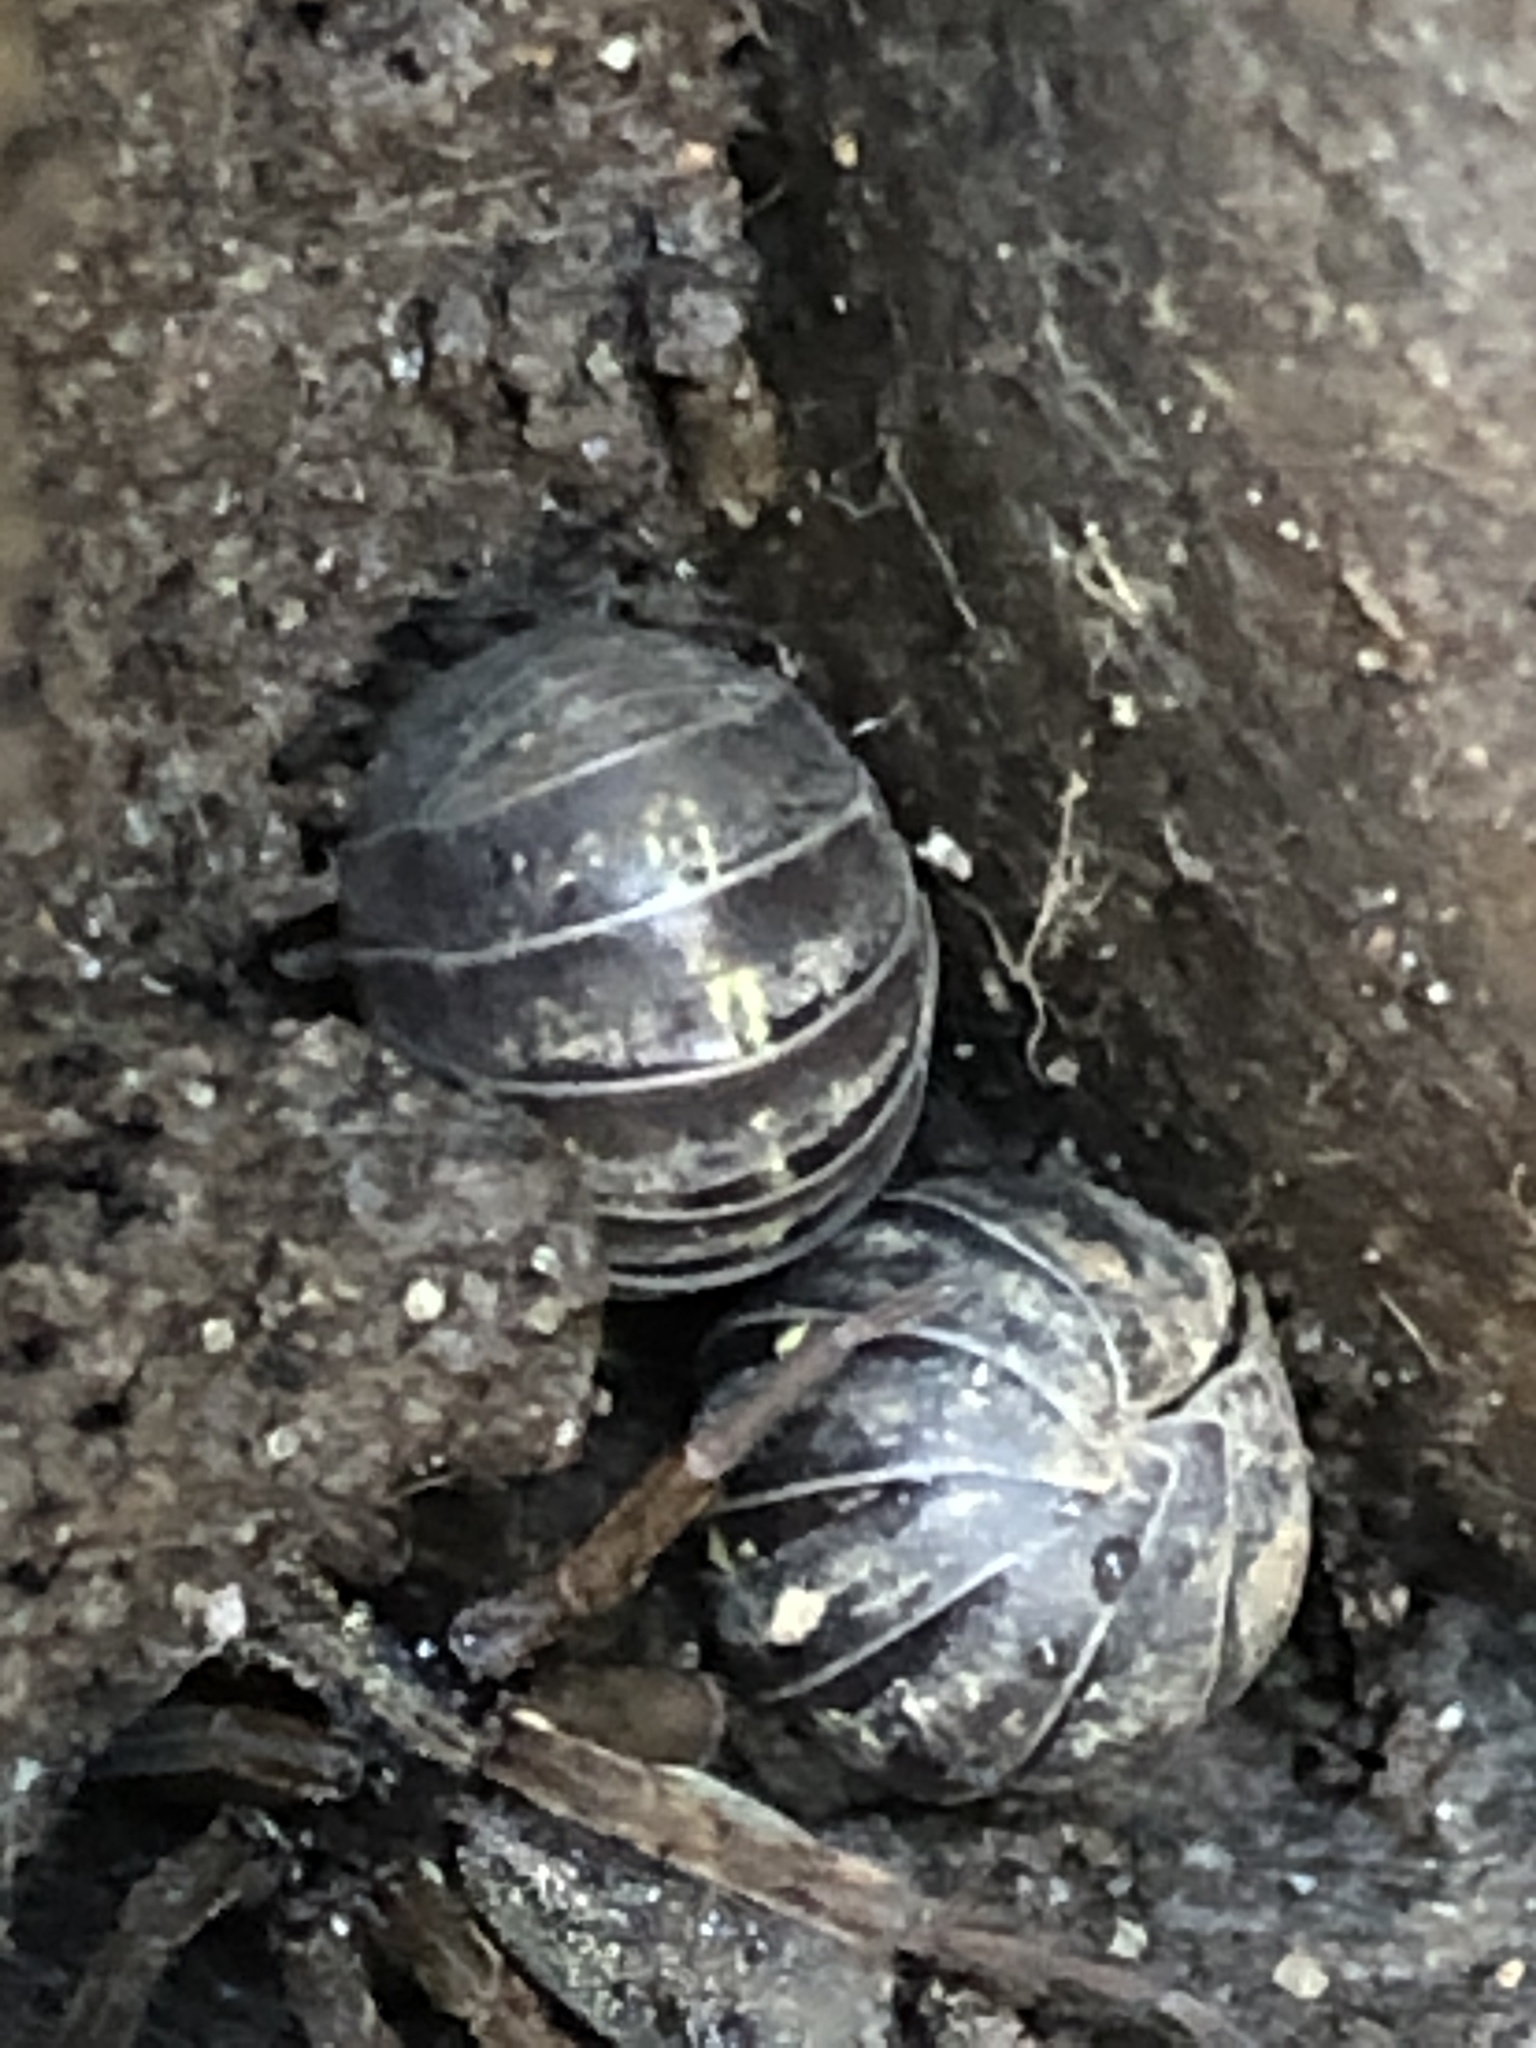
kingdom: Animalia
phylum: Arthropoda
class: Malacostraca
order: Isopoda
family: Armadillidiidae
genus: Armadillidium
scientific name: Armadillidium vulgare
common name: Common pill woodlouse
